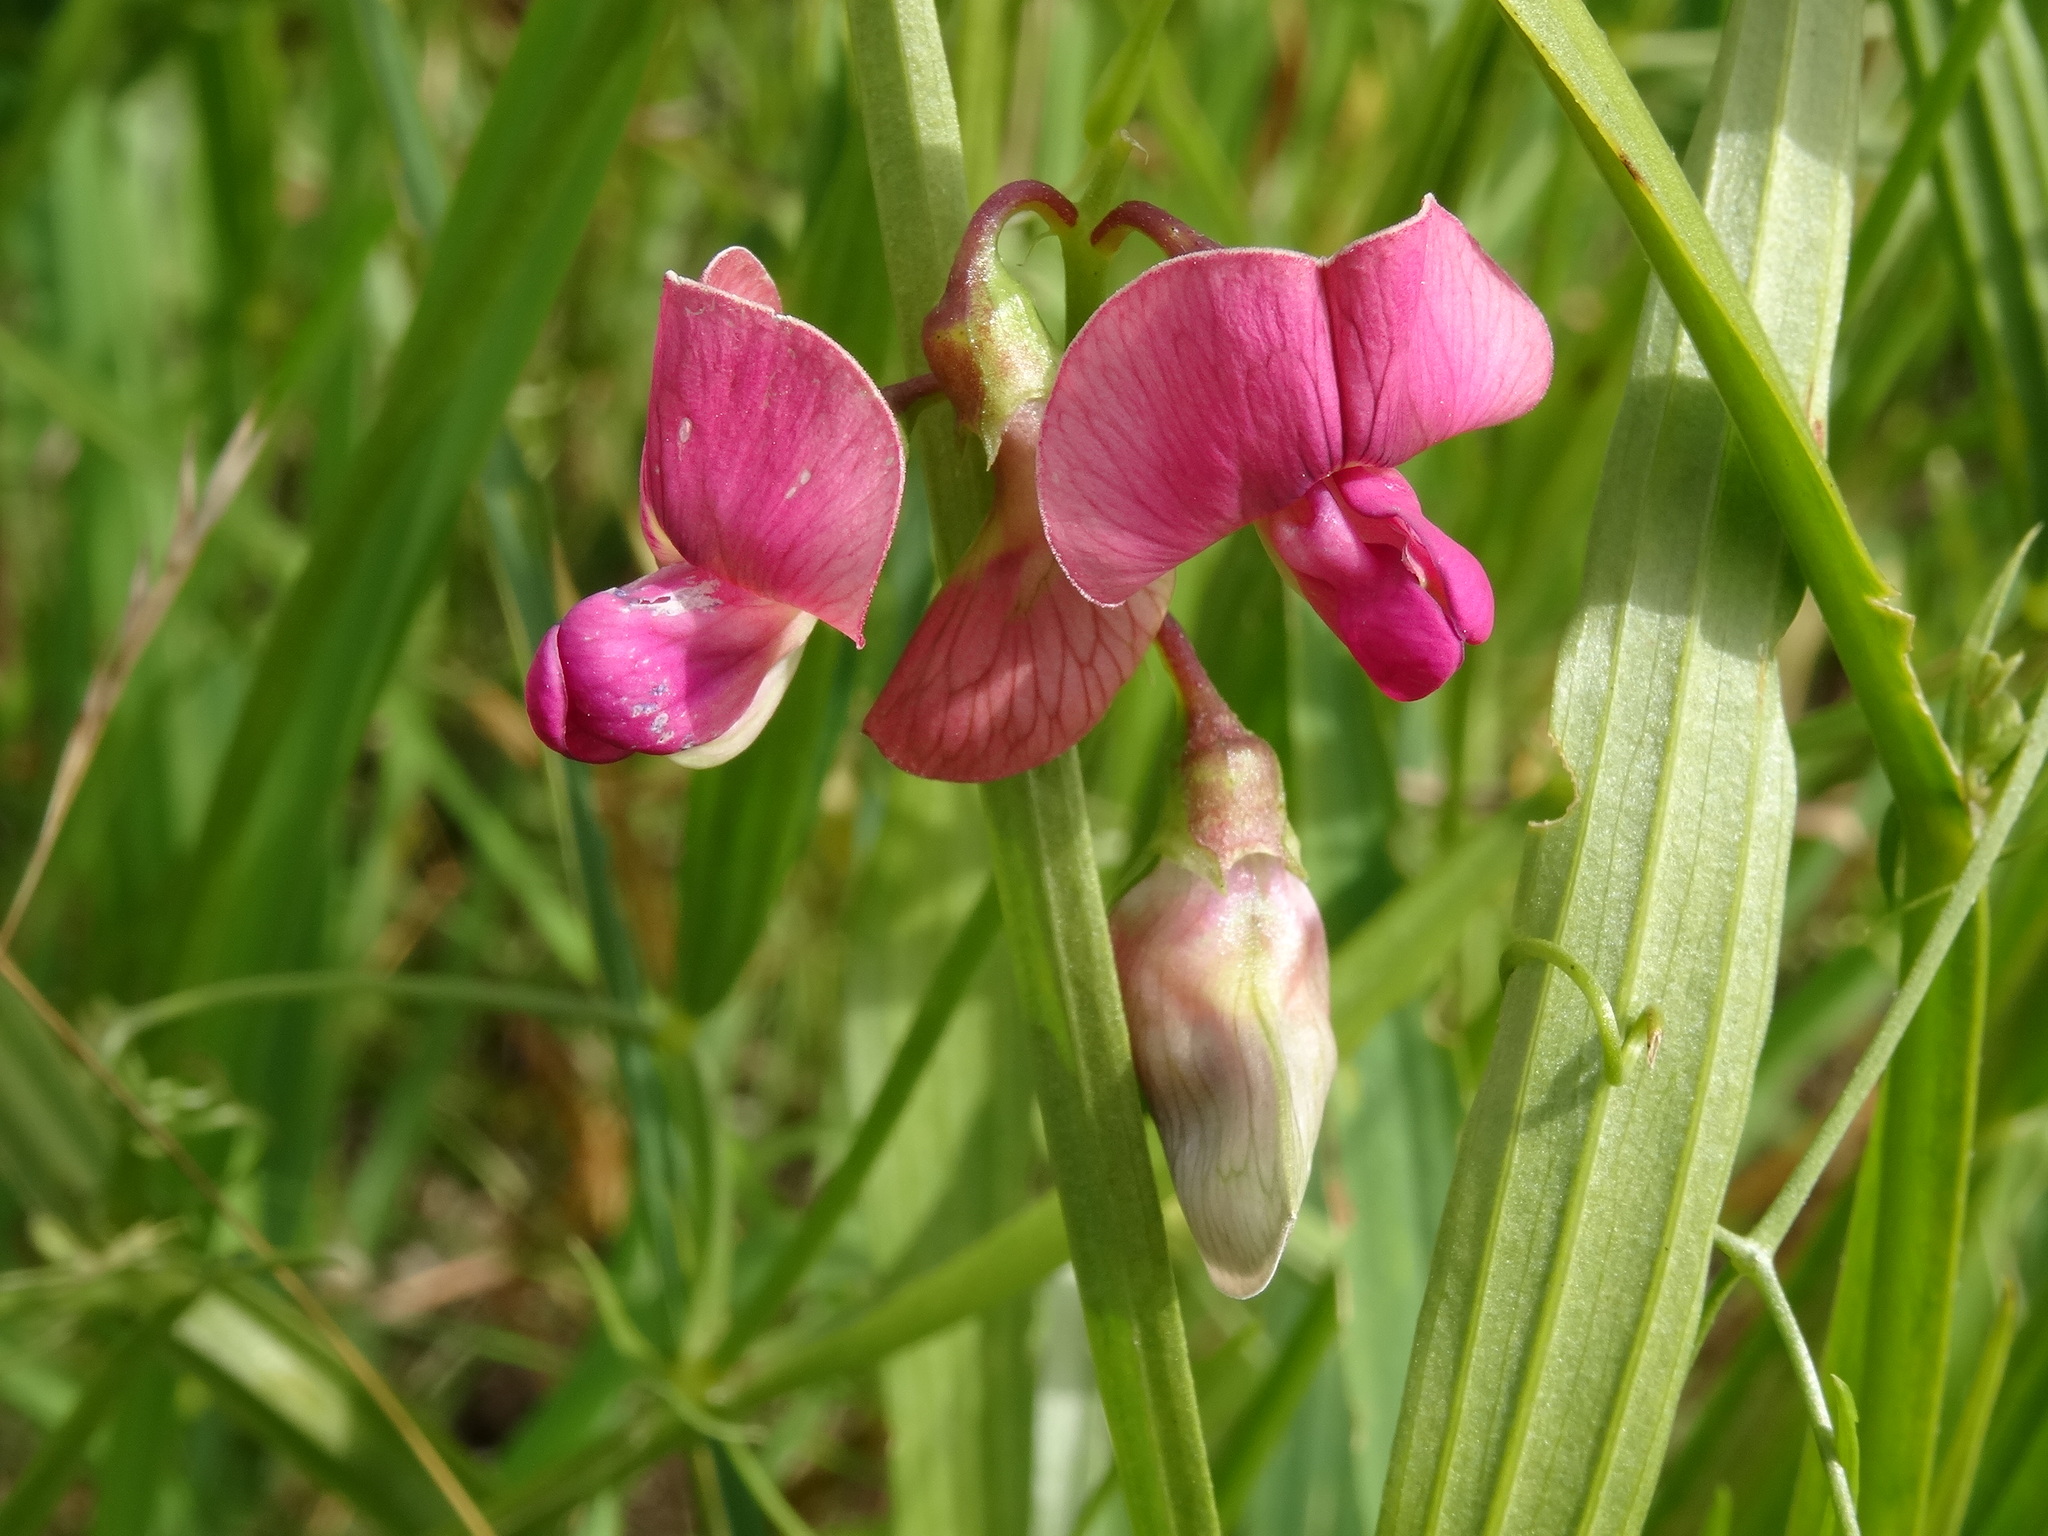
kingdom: Plantae
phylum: Tracheophyta
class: Magnoliopsida
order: Fabales
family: Fabaceae
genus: Lathyrus
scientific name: Lathyrus sylvestris
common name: Flat pea
